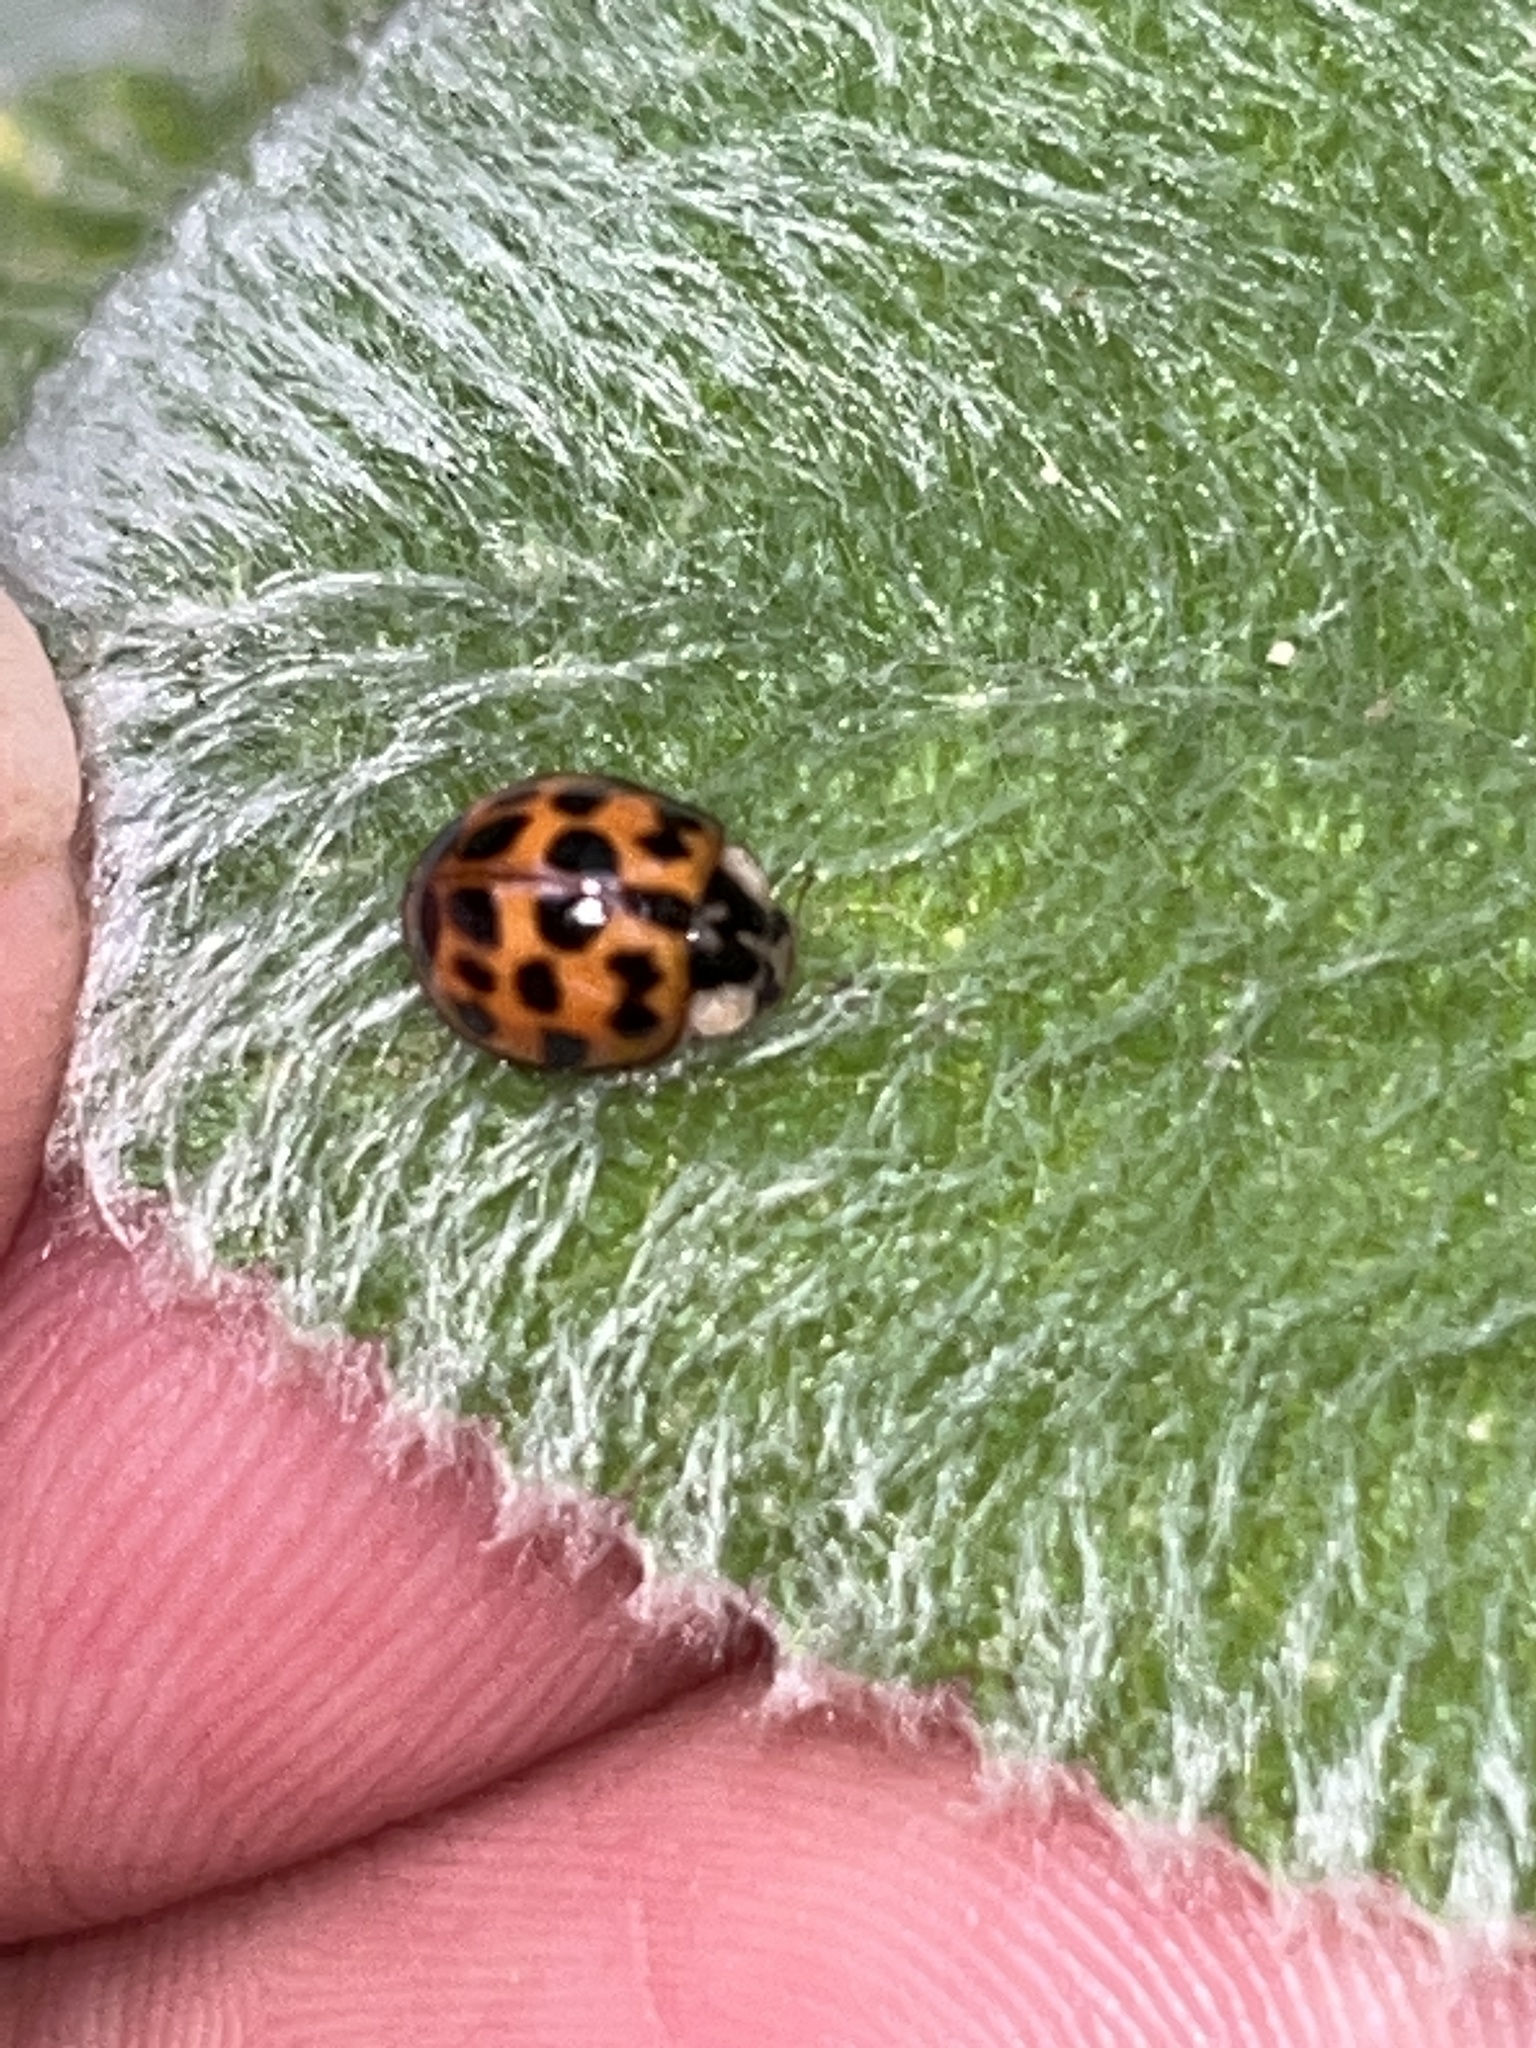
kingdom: Animalia
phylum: Arthropoda
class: Insecta
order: Coleoptera
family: Coccinellidae
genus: Harmonia
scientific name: Harmonia axyridis
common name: Harlequin ladybird
